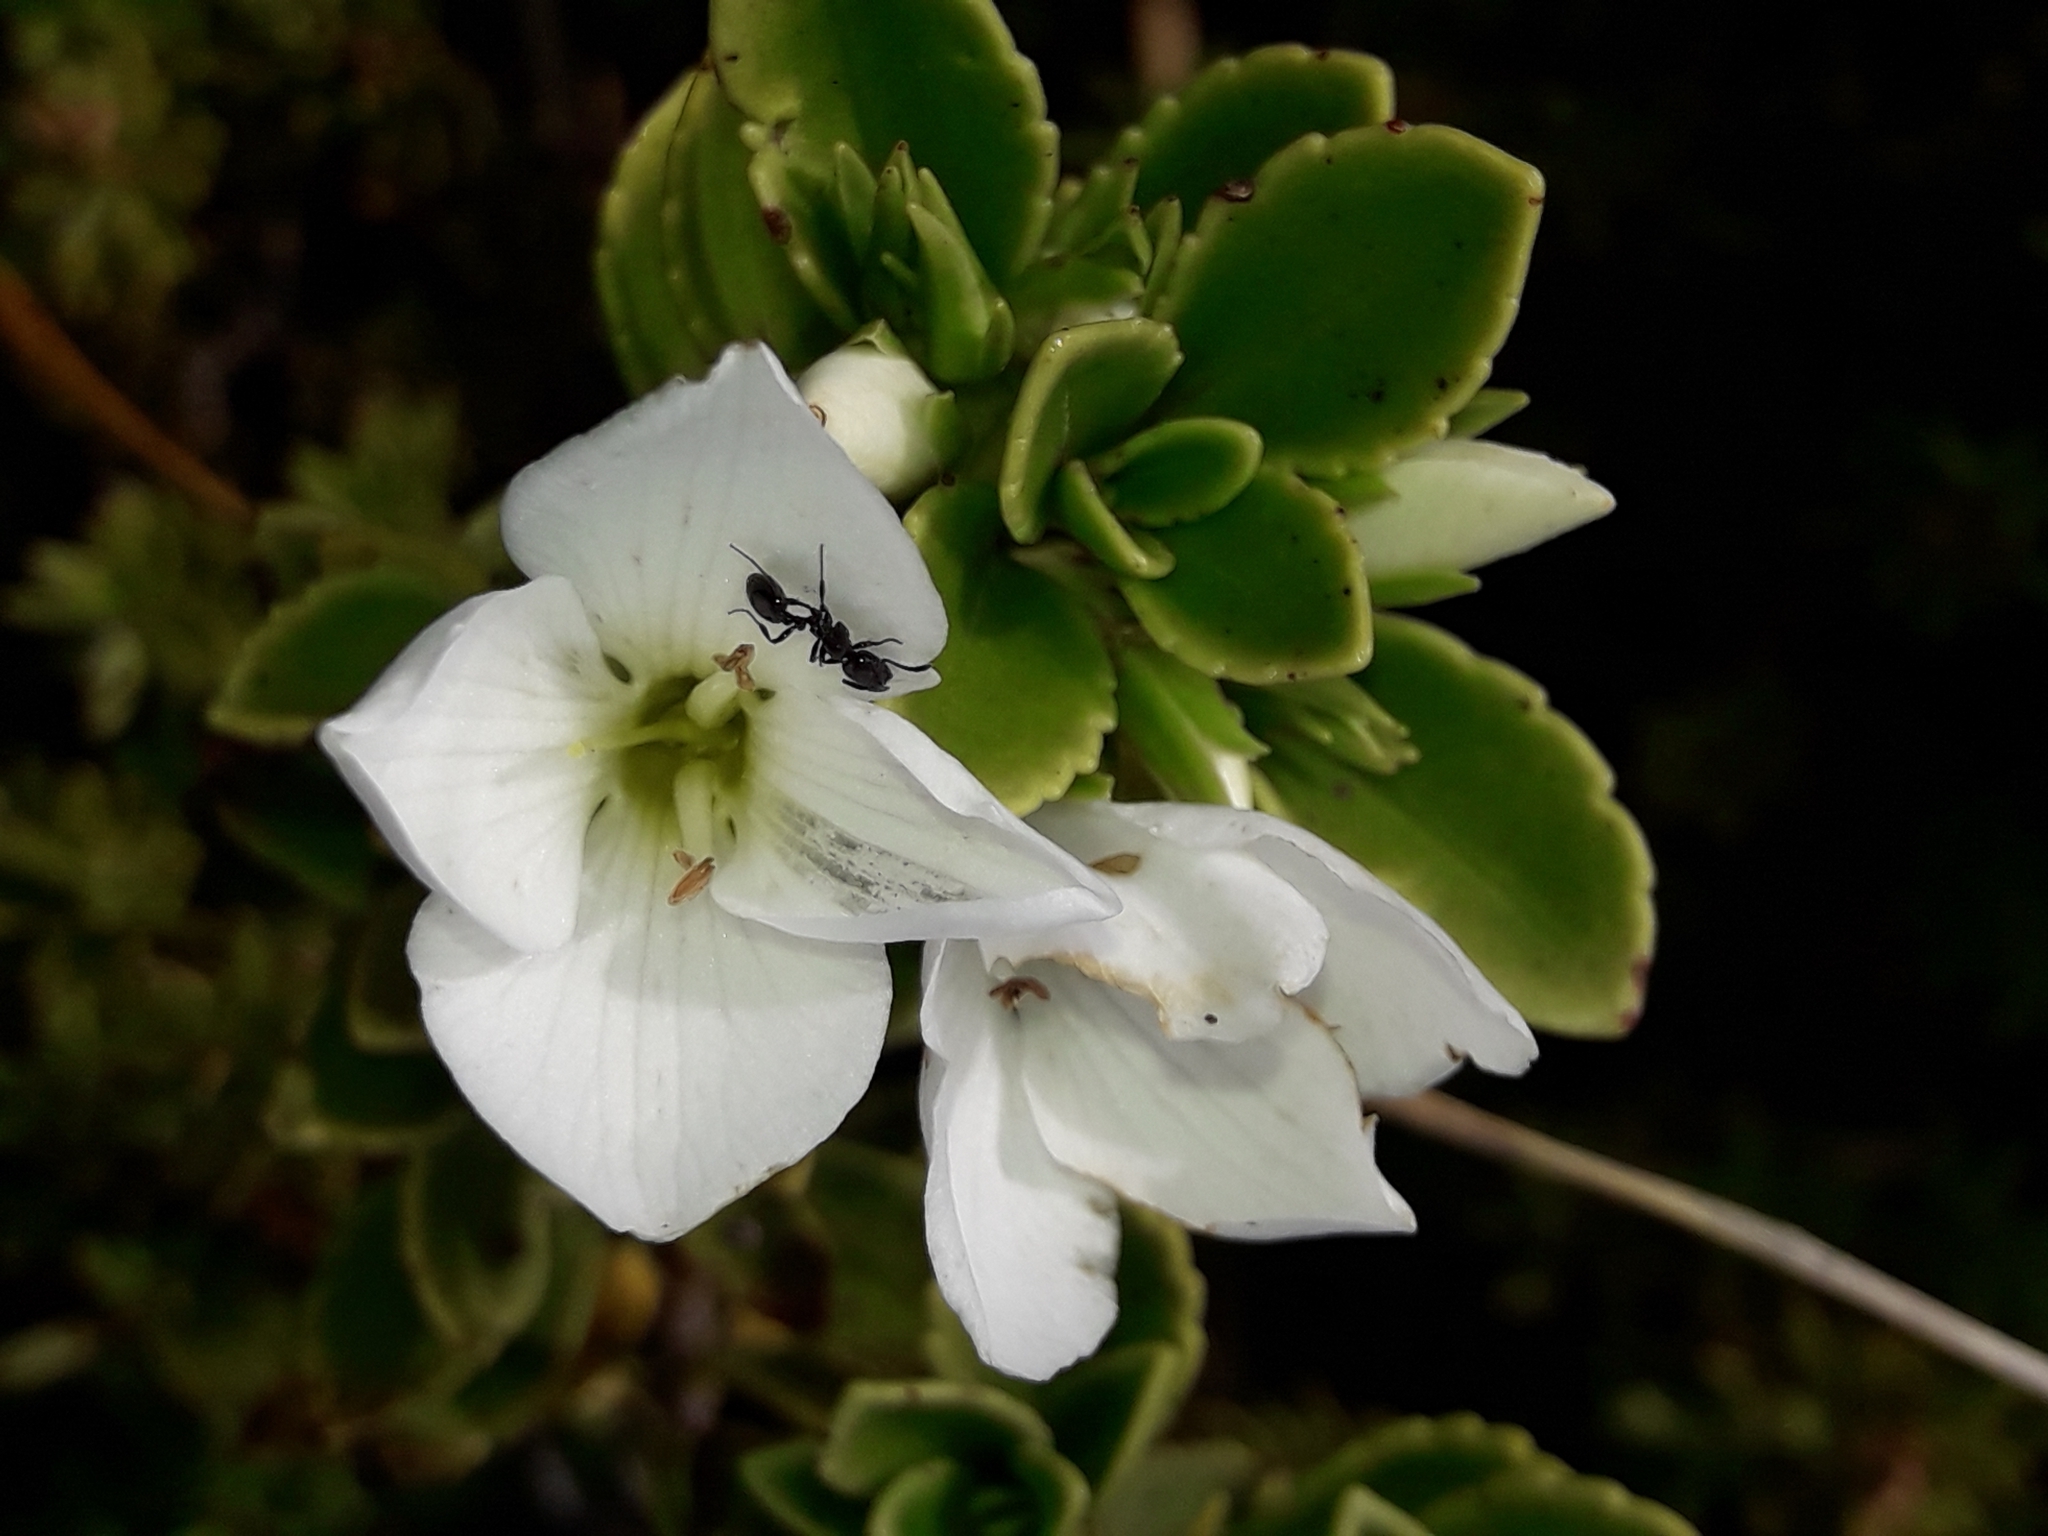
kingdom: Plantae
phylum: Tracheophyta
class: Magnoliopsida
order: Lamiales
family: Plantaginaceae
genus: Veronica
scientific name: Veronica macrantha
